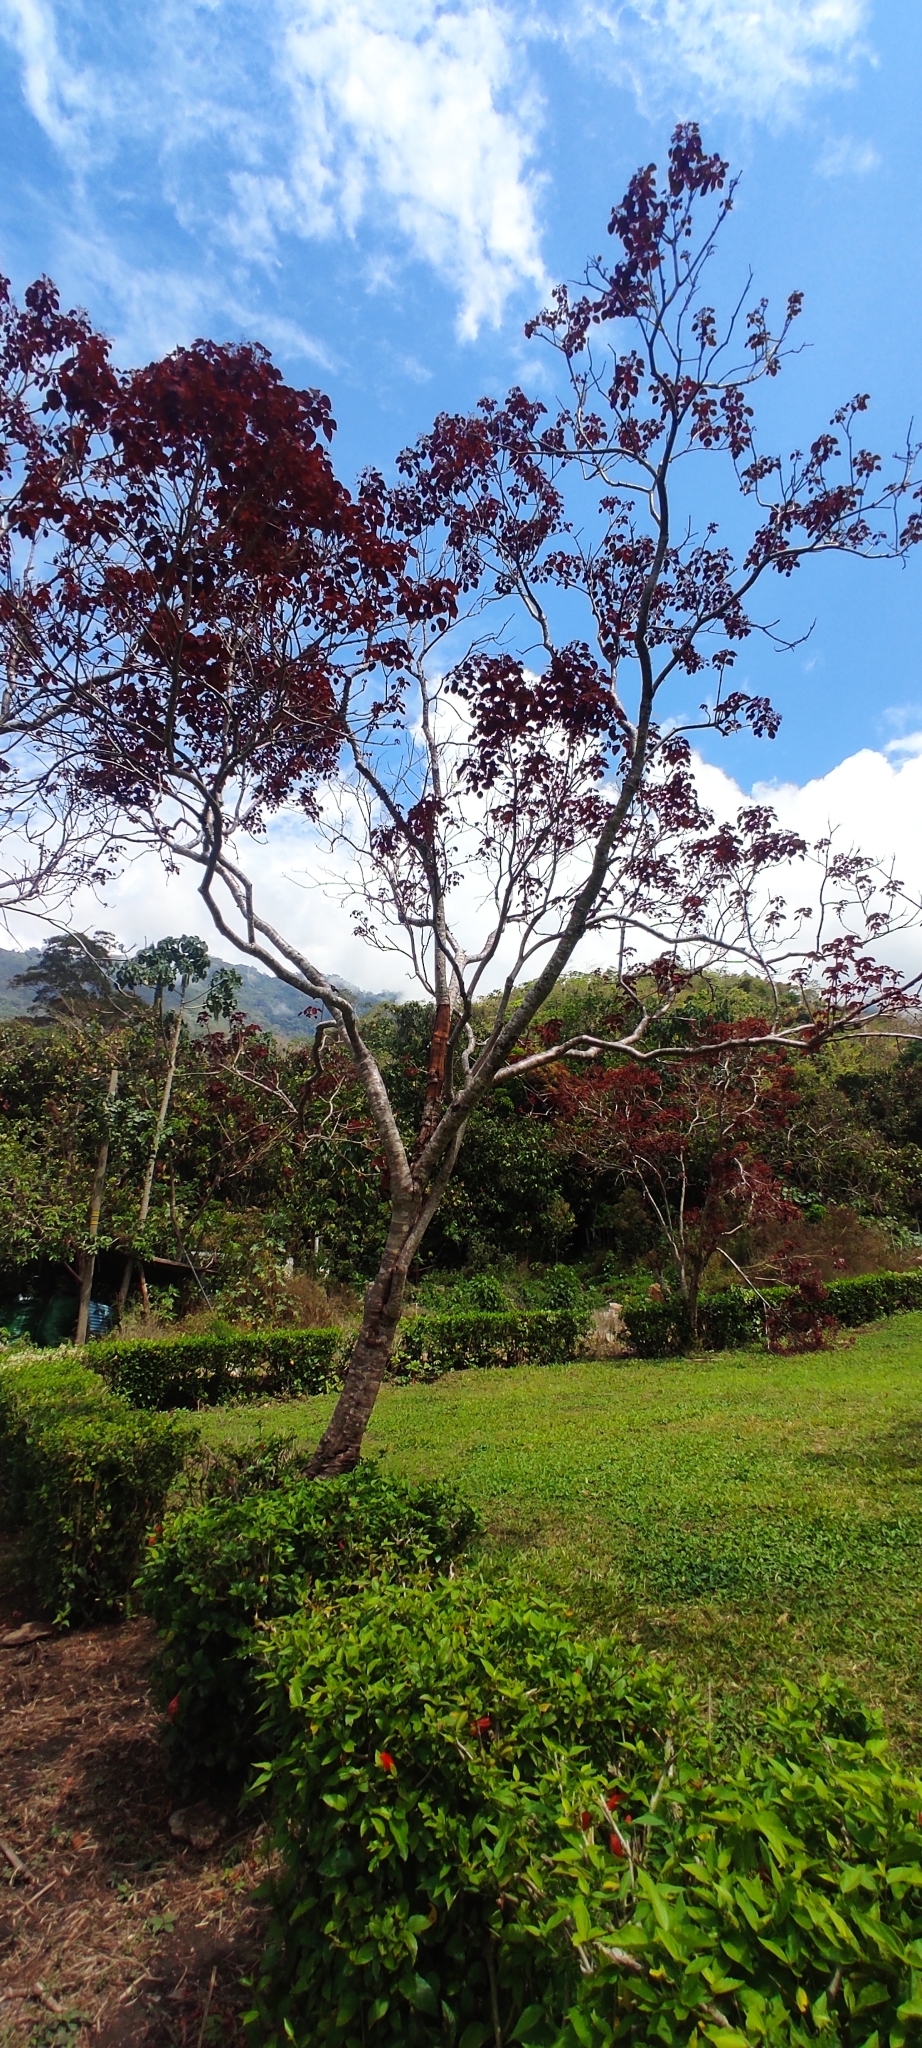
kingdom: Plantae
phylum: Tracheophyta
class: Magnoliopsida
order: Malpighiales
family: Euphorbiaceae
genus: Euphorbia
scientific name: Euphorbia cotinifolia
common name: Tropical smokebush
